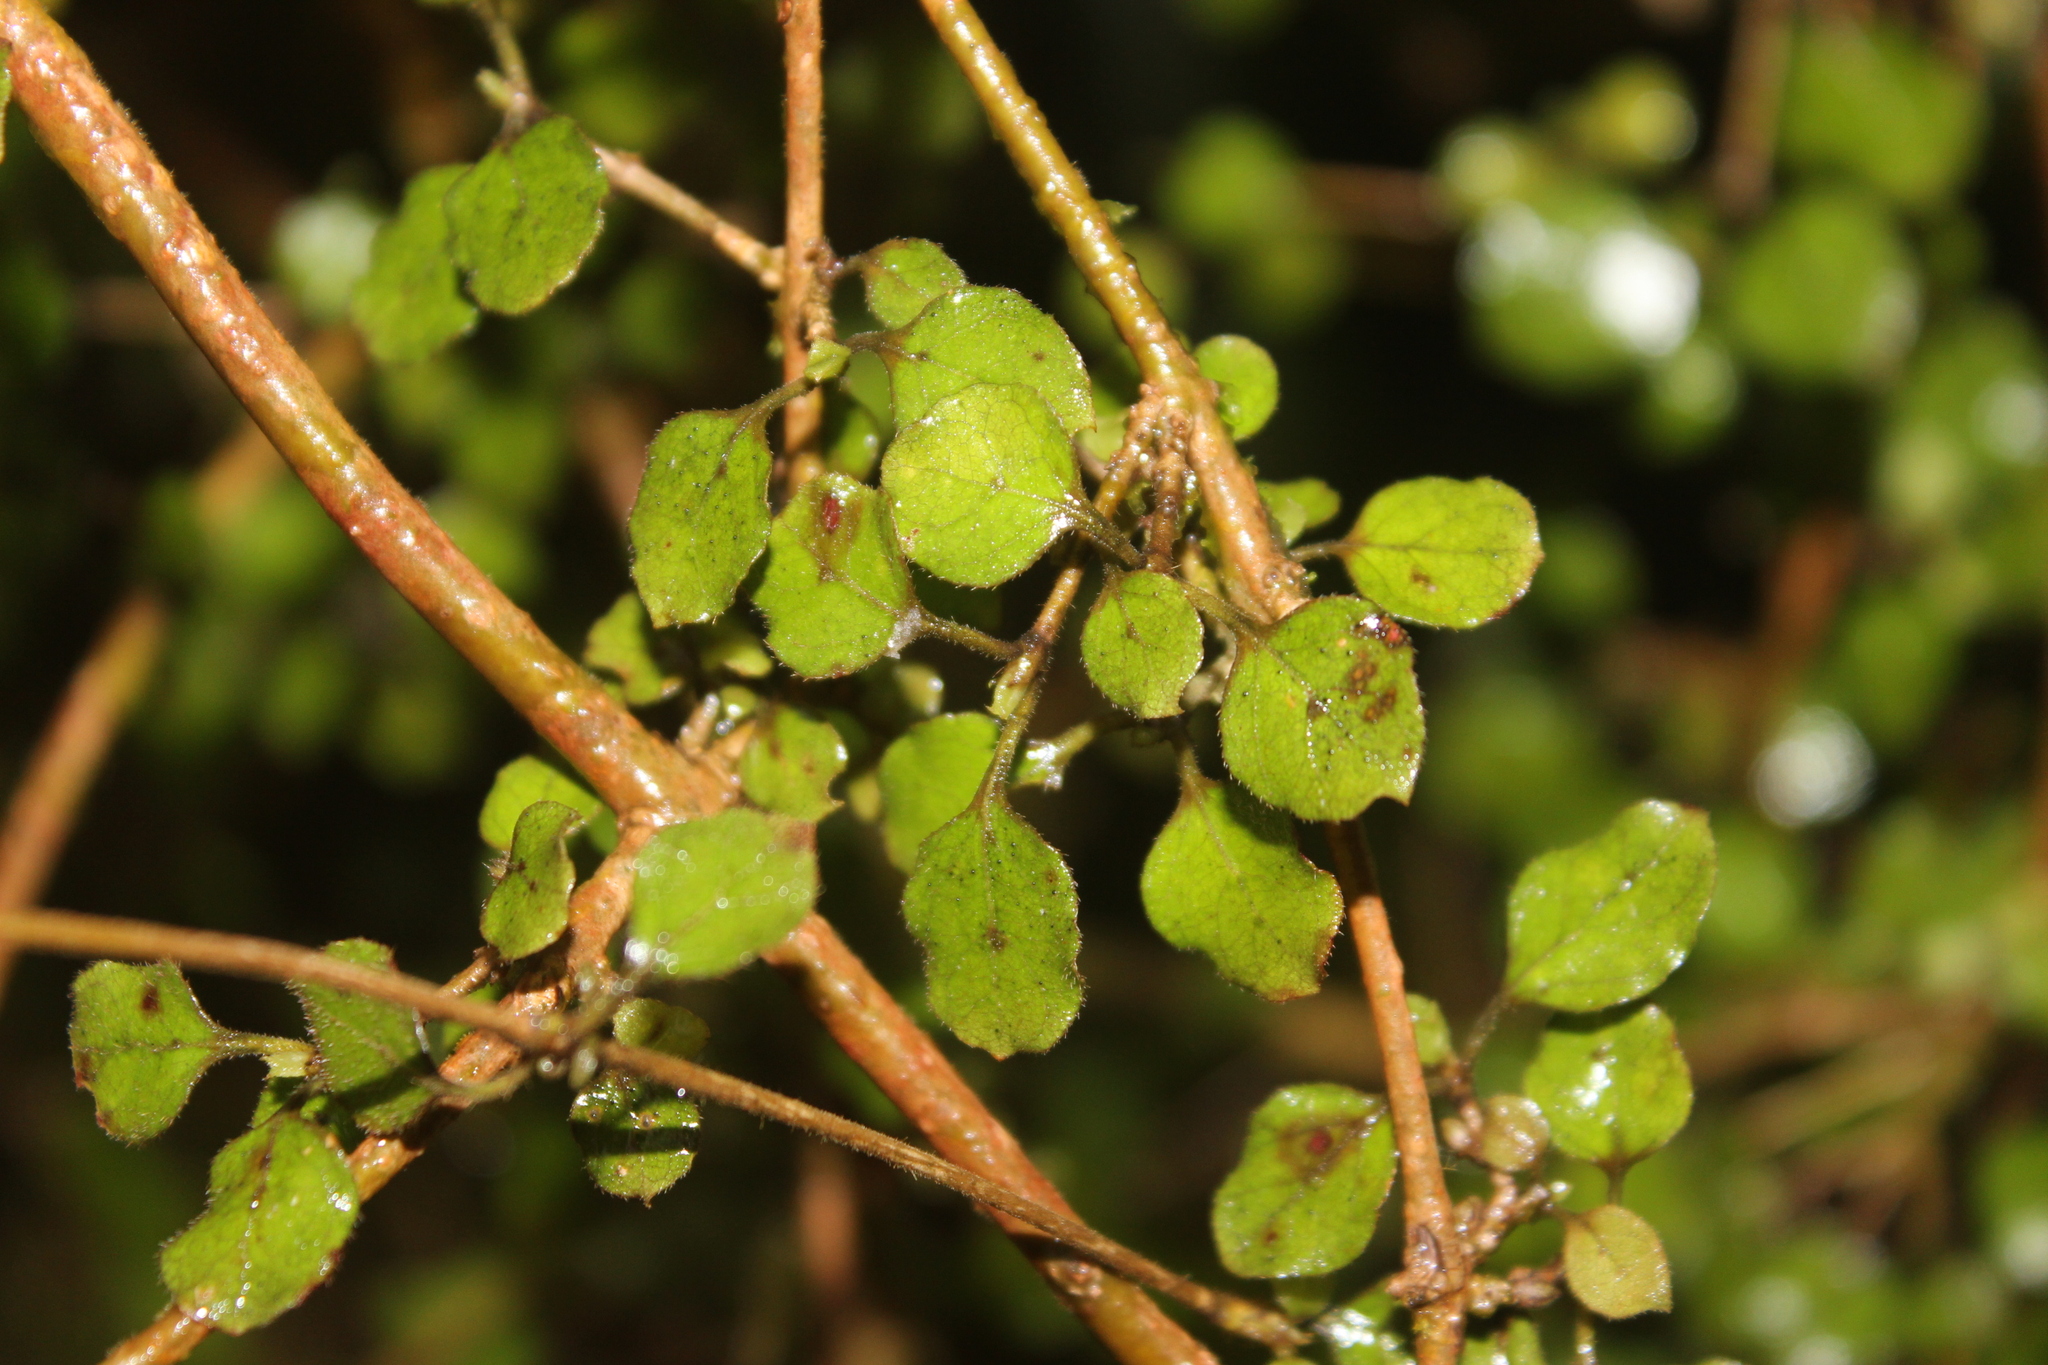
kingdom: Plantae
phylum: Tracheophyta
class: Magnoliopsida
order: Gentianales
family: Rubiaceae
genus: Coprosma
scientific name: Coprosma rotundifolia
